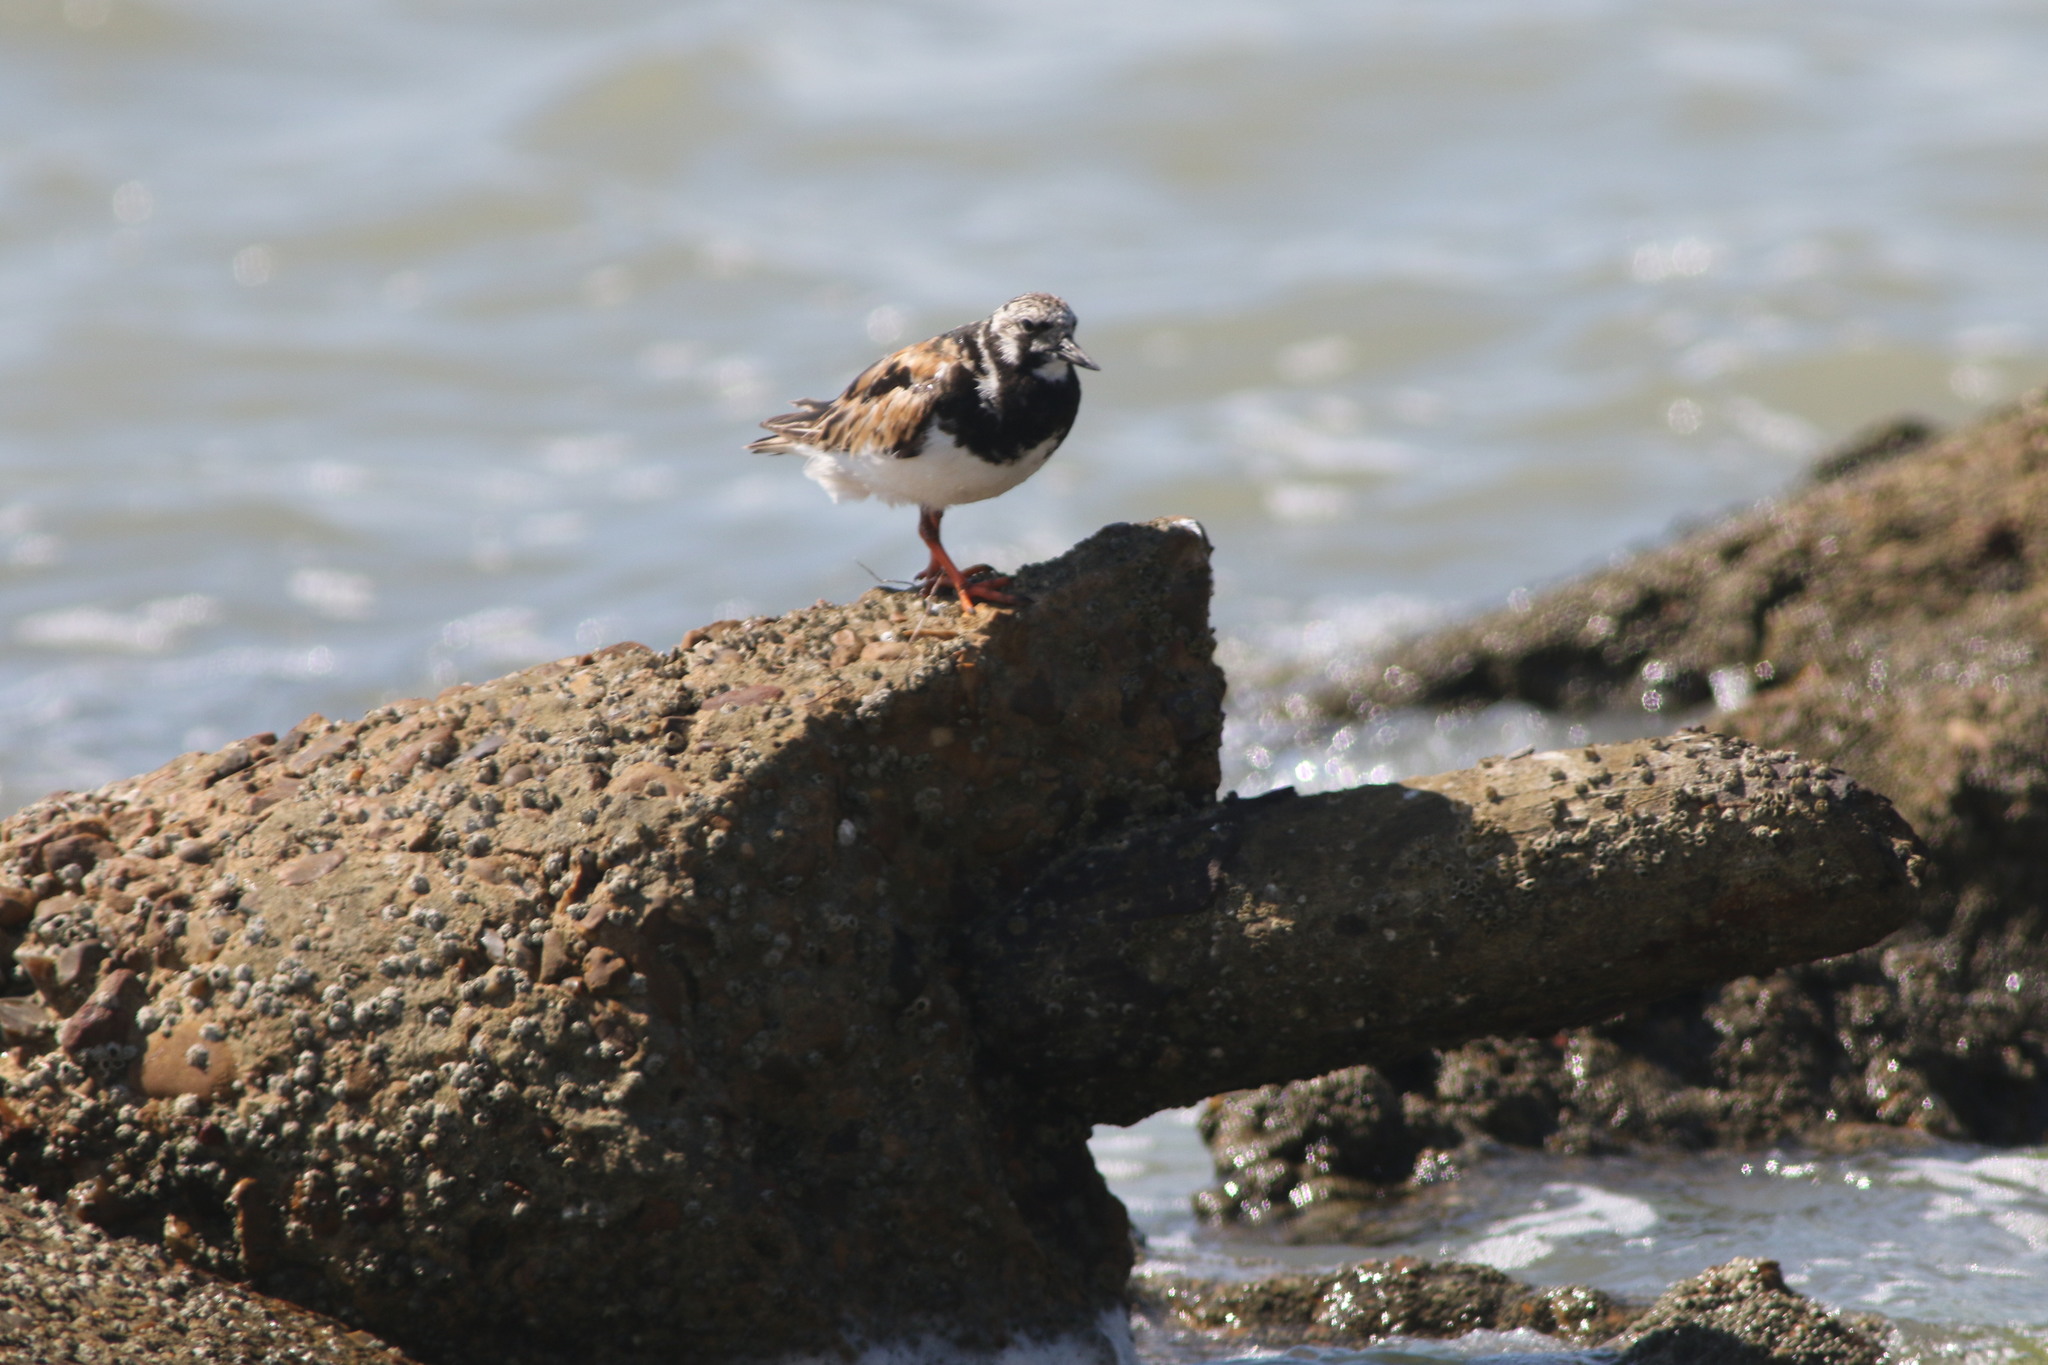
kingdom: Animalia
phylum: Chordata
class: Aves
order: Charadriiformes
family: Scolopacidae
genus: Arenaria
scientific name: Arenaria interpres
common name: Ruddy turnstone
